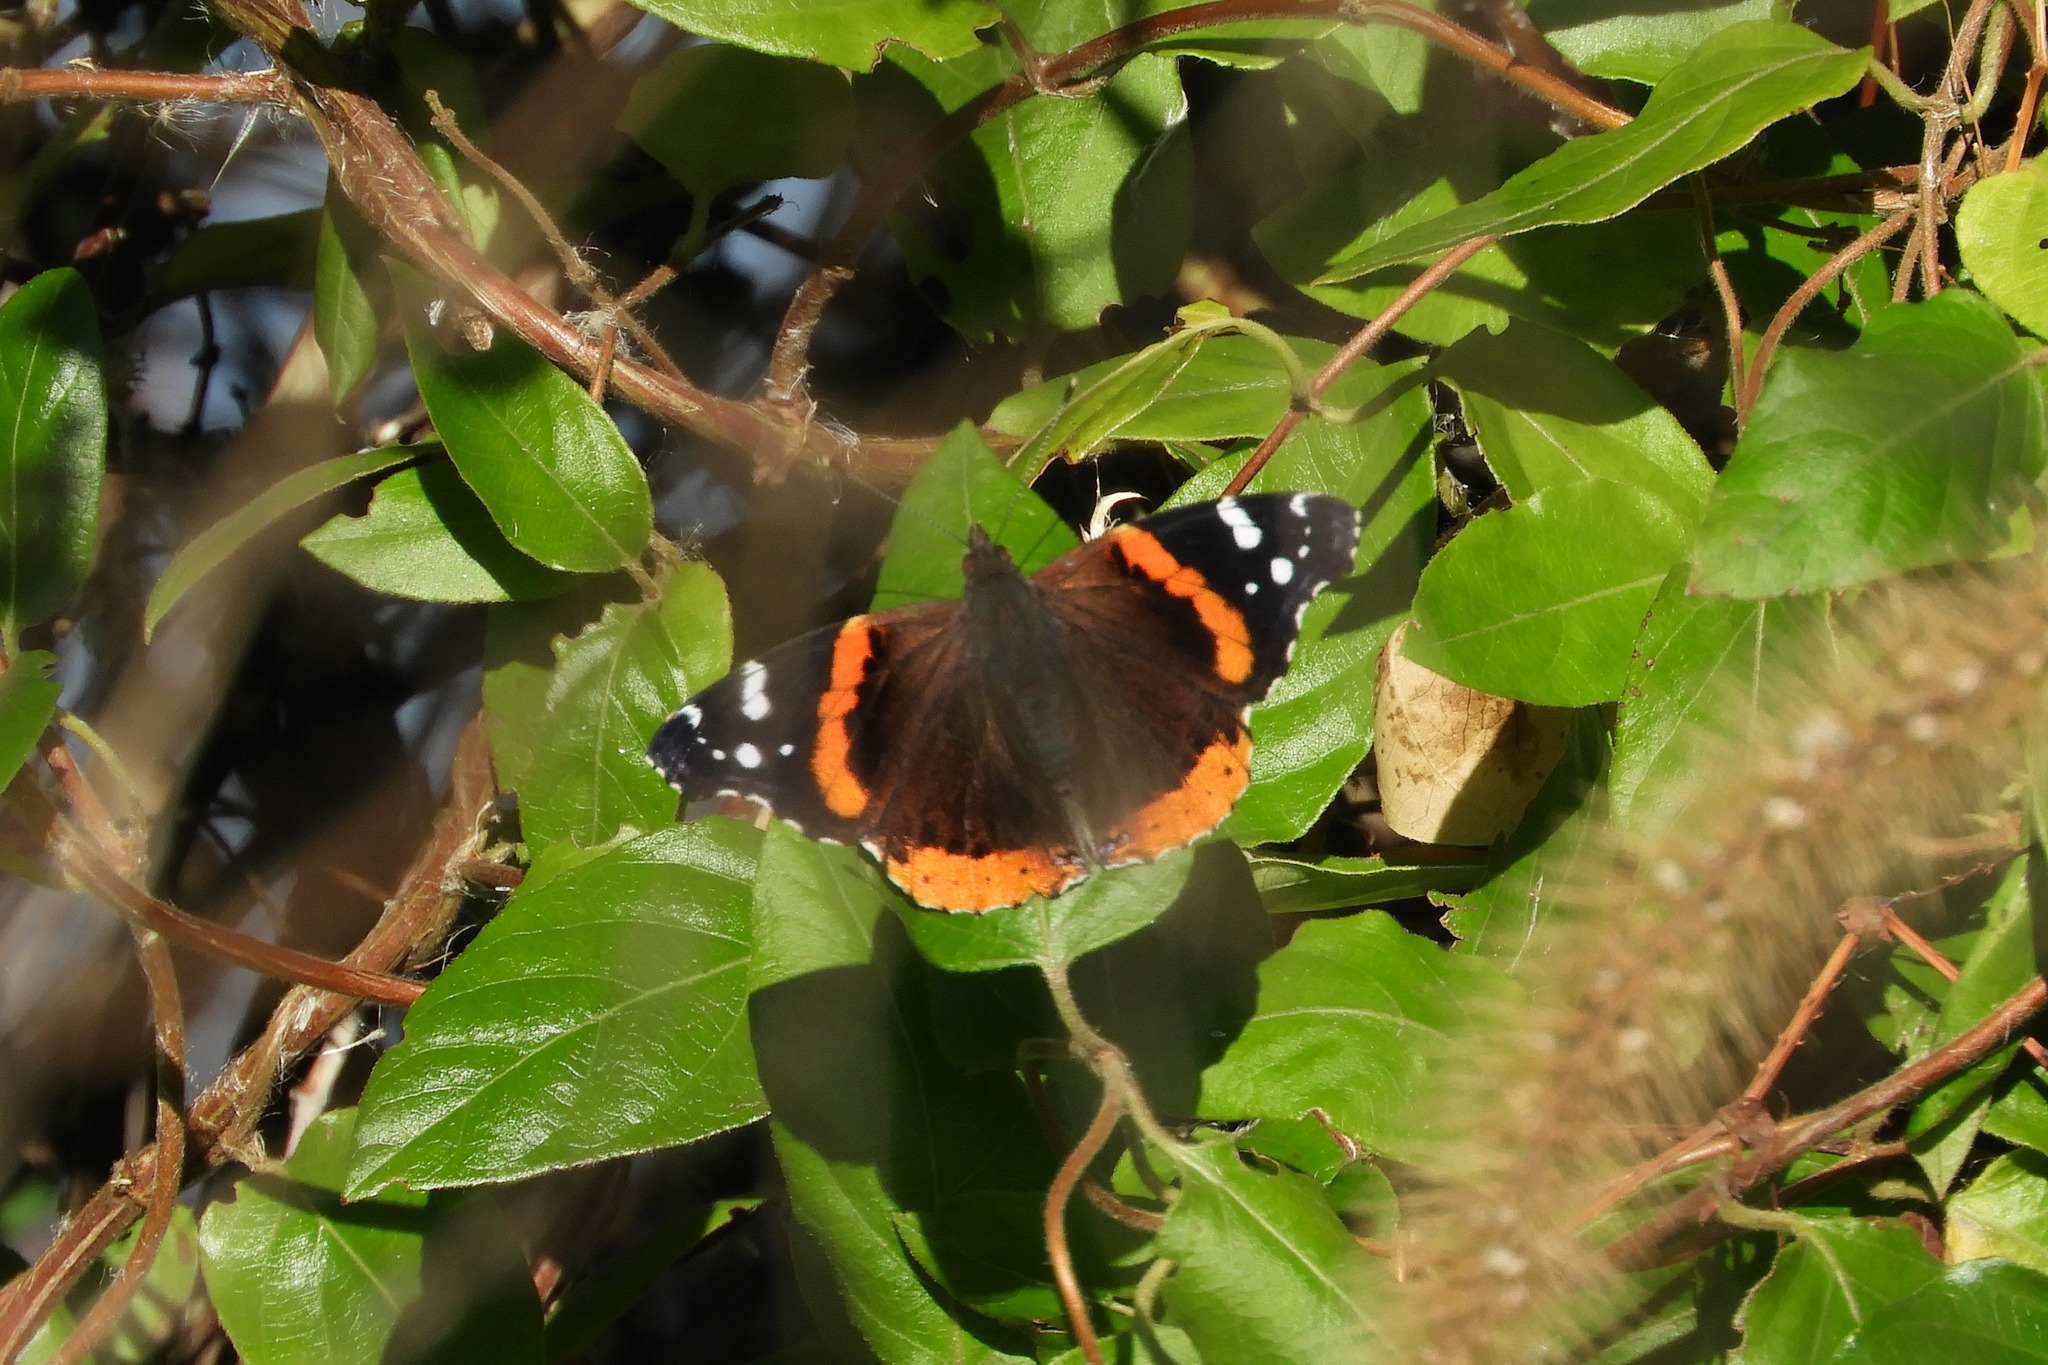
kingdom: Animalia
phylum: Arthropoda
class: Insecta
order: Lepidoptera
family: Nymphalidae
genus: Vanessa
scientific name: Vanessa atalanta
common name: Red admiral
